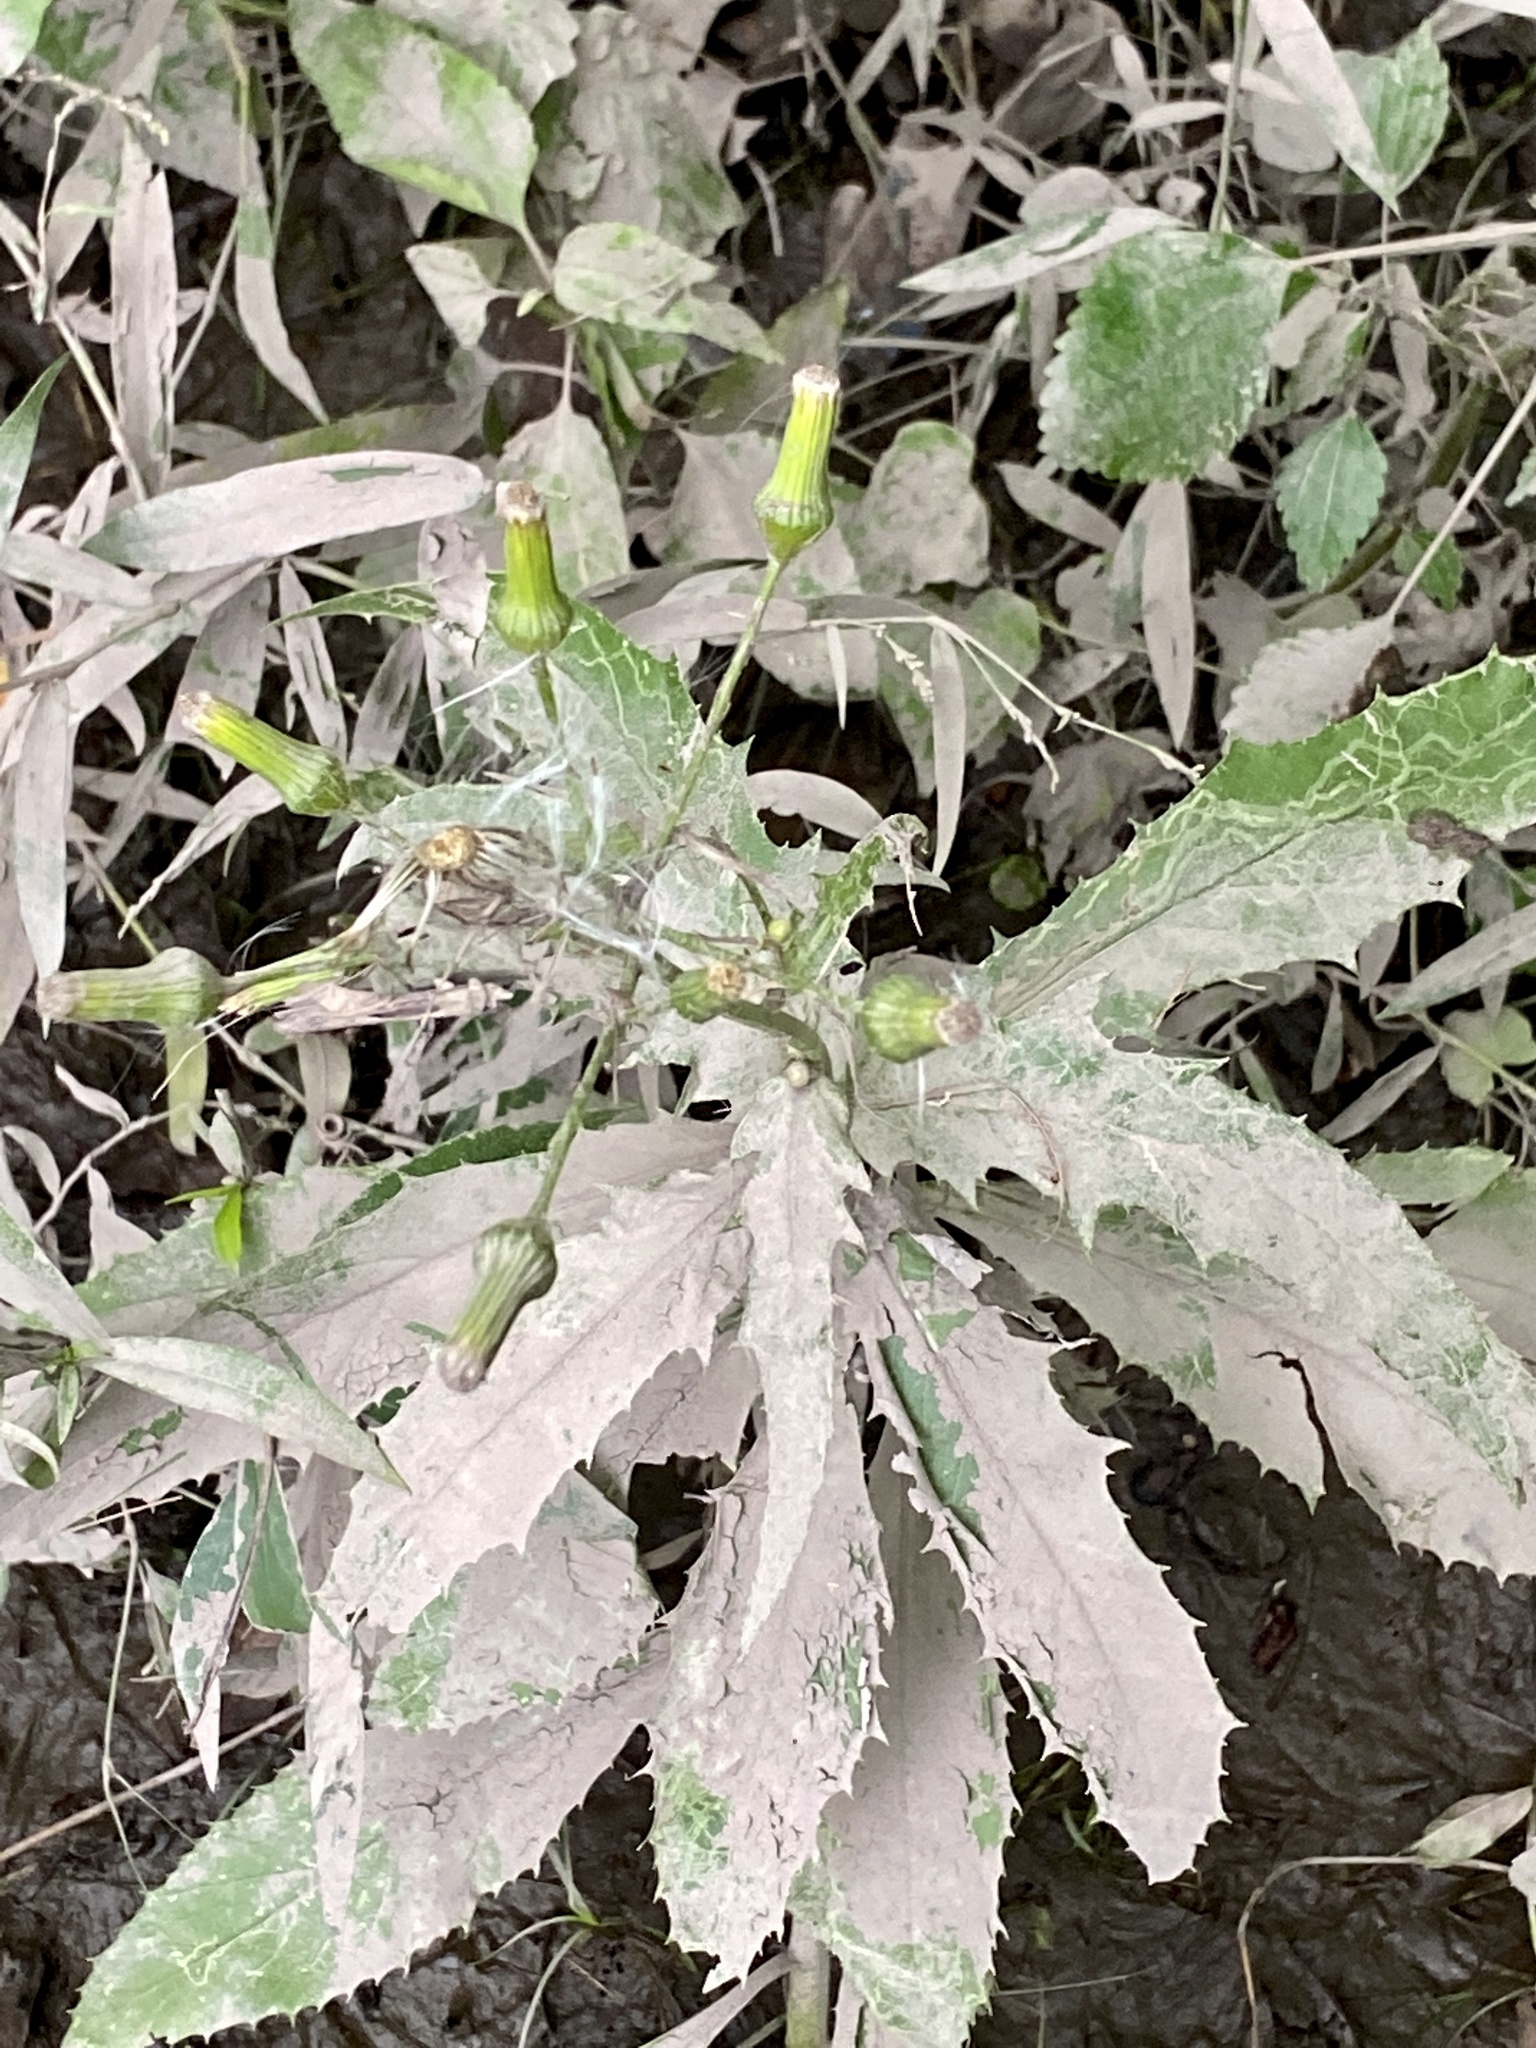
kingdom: Plantae
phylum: Tracheophyta
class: Magnoliopsida
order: Asterales
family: Asteraceae
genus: Erechtites
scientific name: Erechtites hieraciifolius
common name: American burnweed
